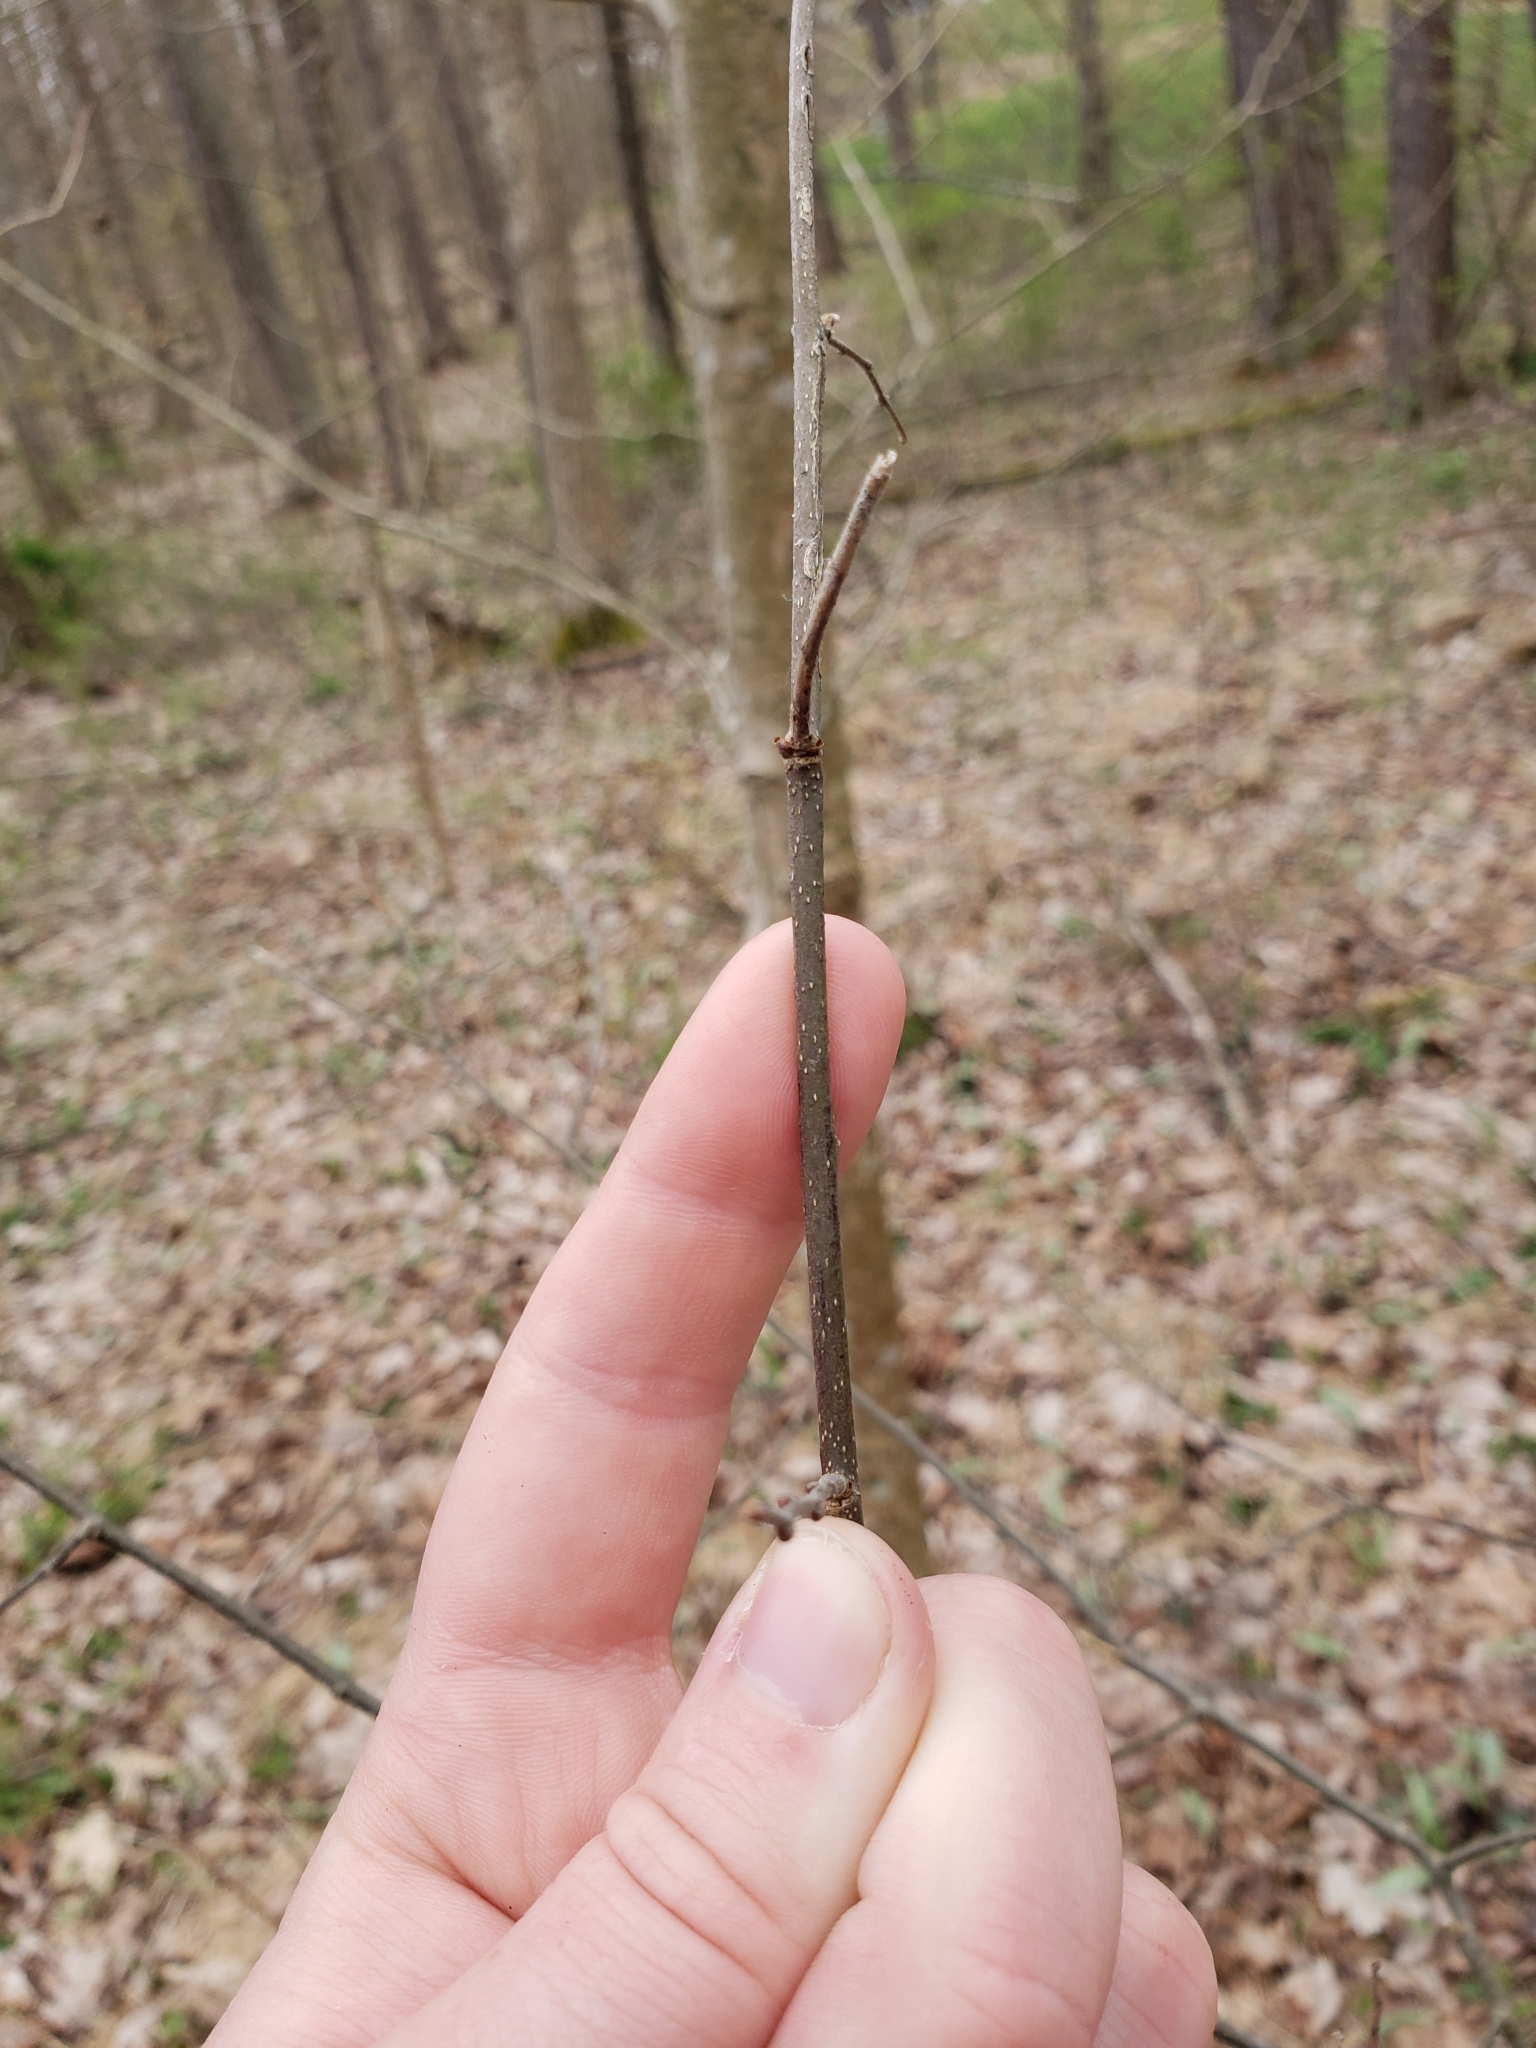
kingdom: Animalia
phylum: Arthropoda
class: Insecta
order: Hemiptera
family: Aphalaridae
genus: Pachypsylla
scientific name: Pachypsylla venusta
